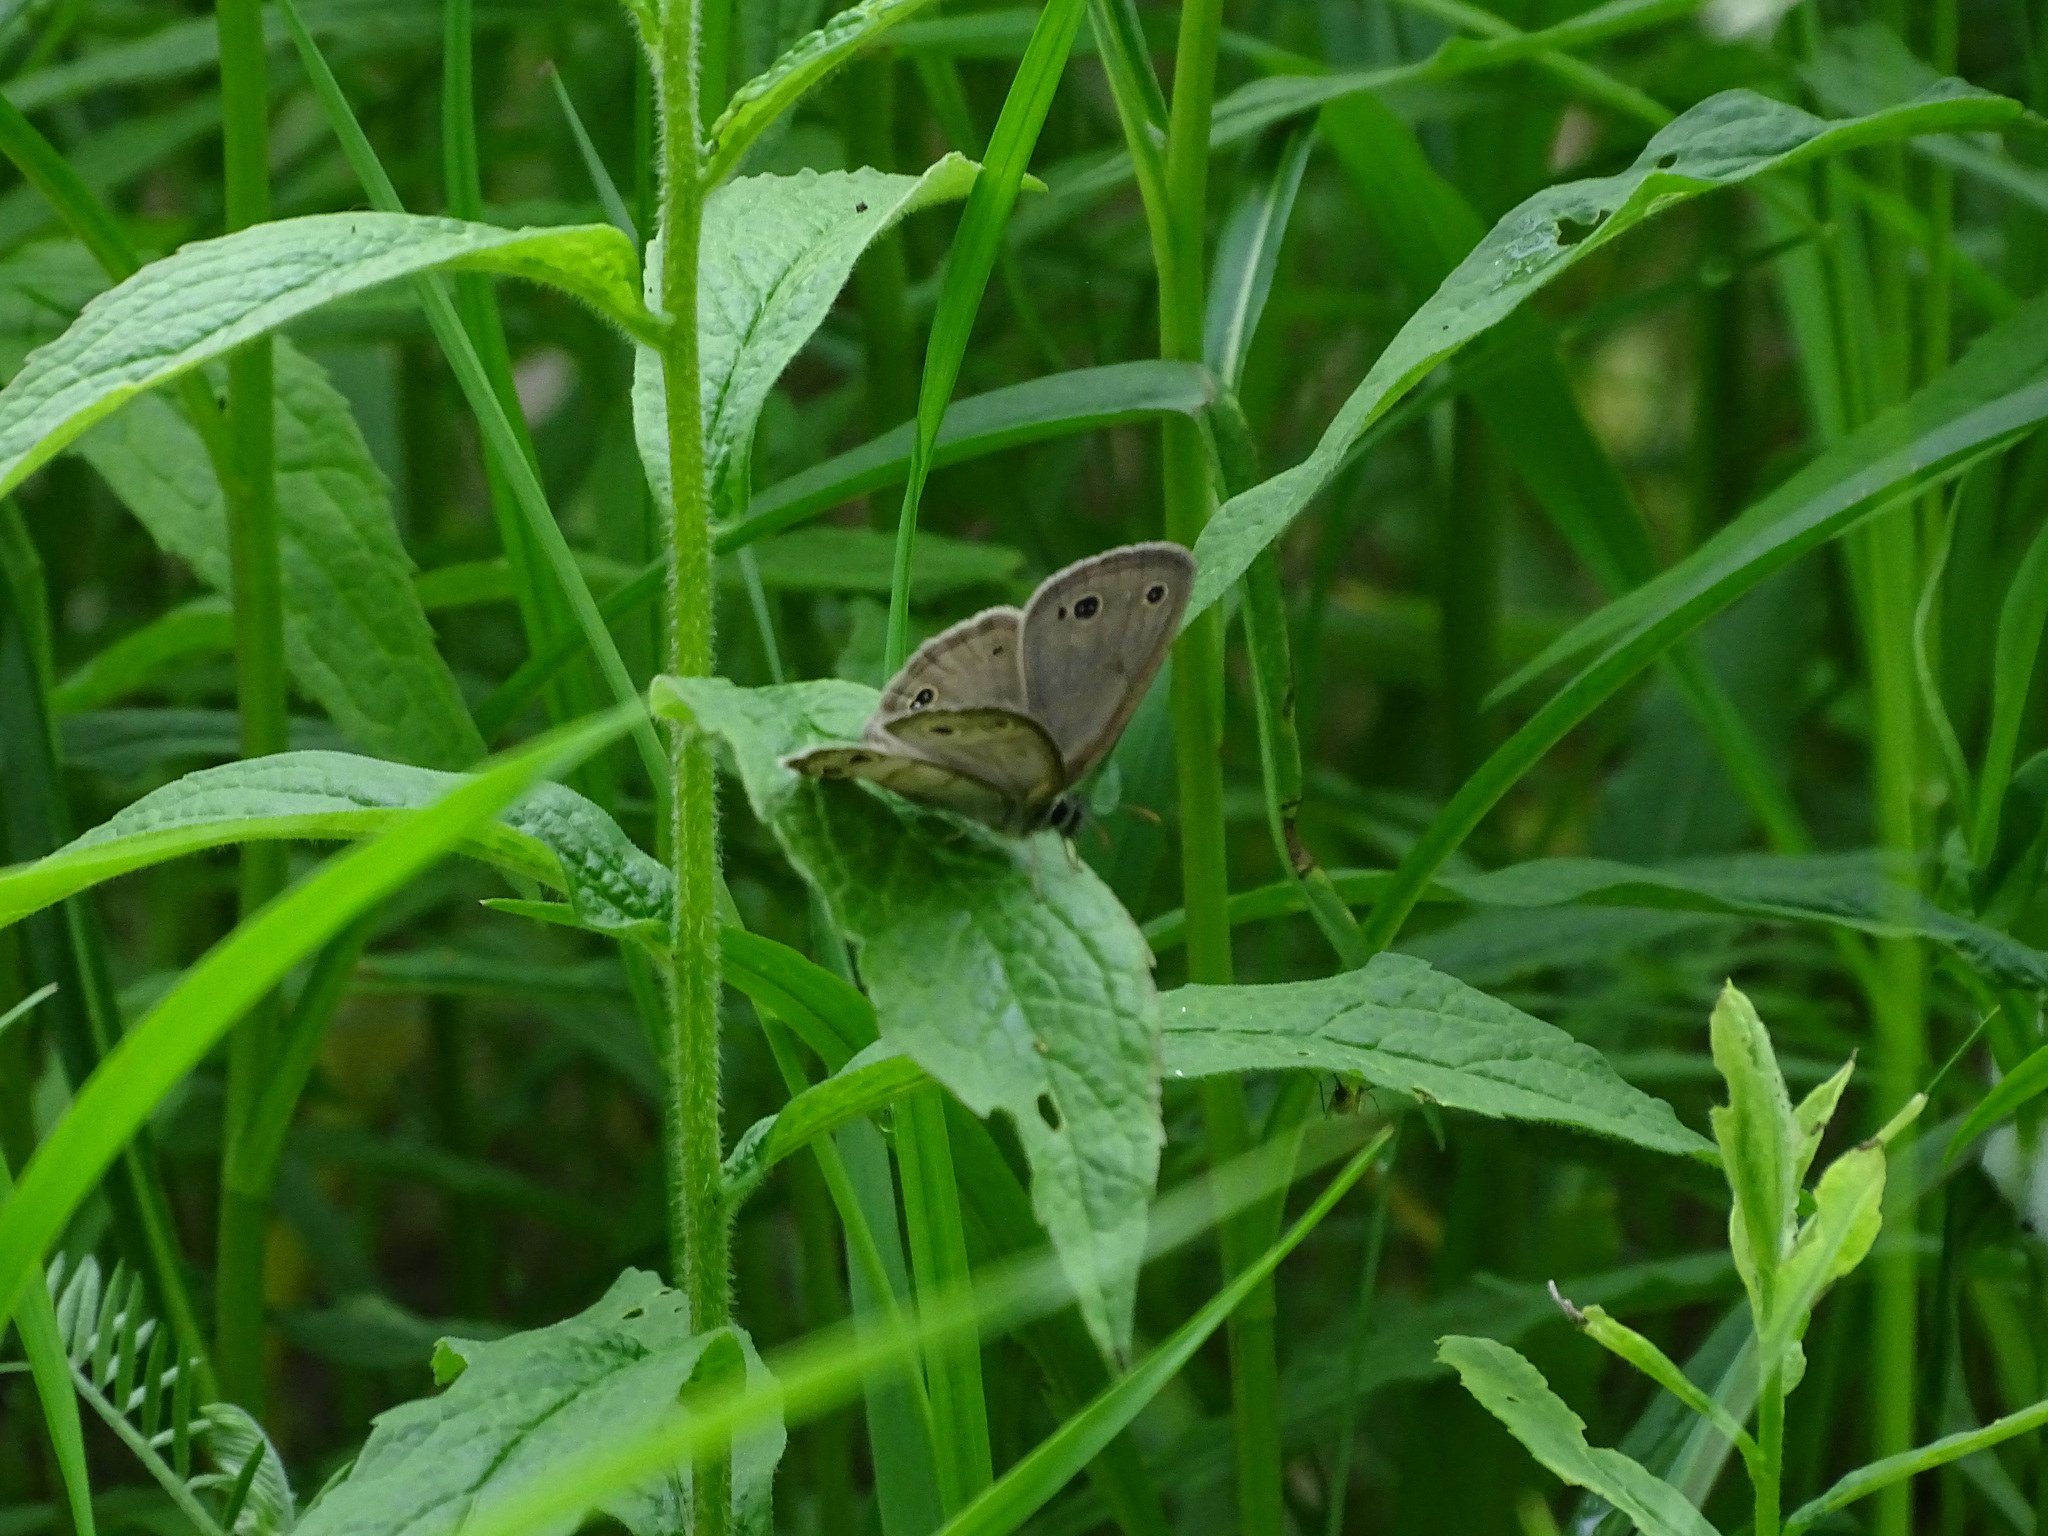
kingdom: Animalia
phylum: Arthropoda
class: Insecta
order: Lepidoptera
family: Nymphalidae
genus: Euptychia
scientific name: Euptychia cymela
